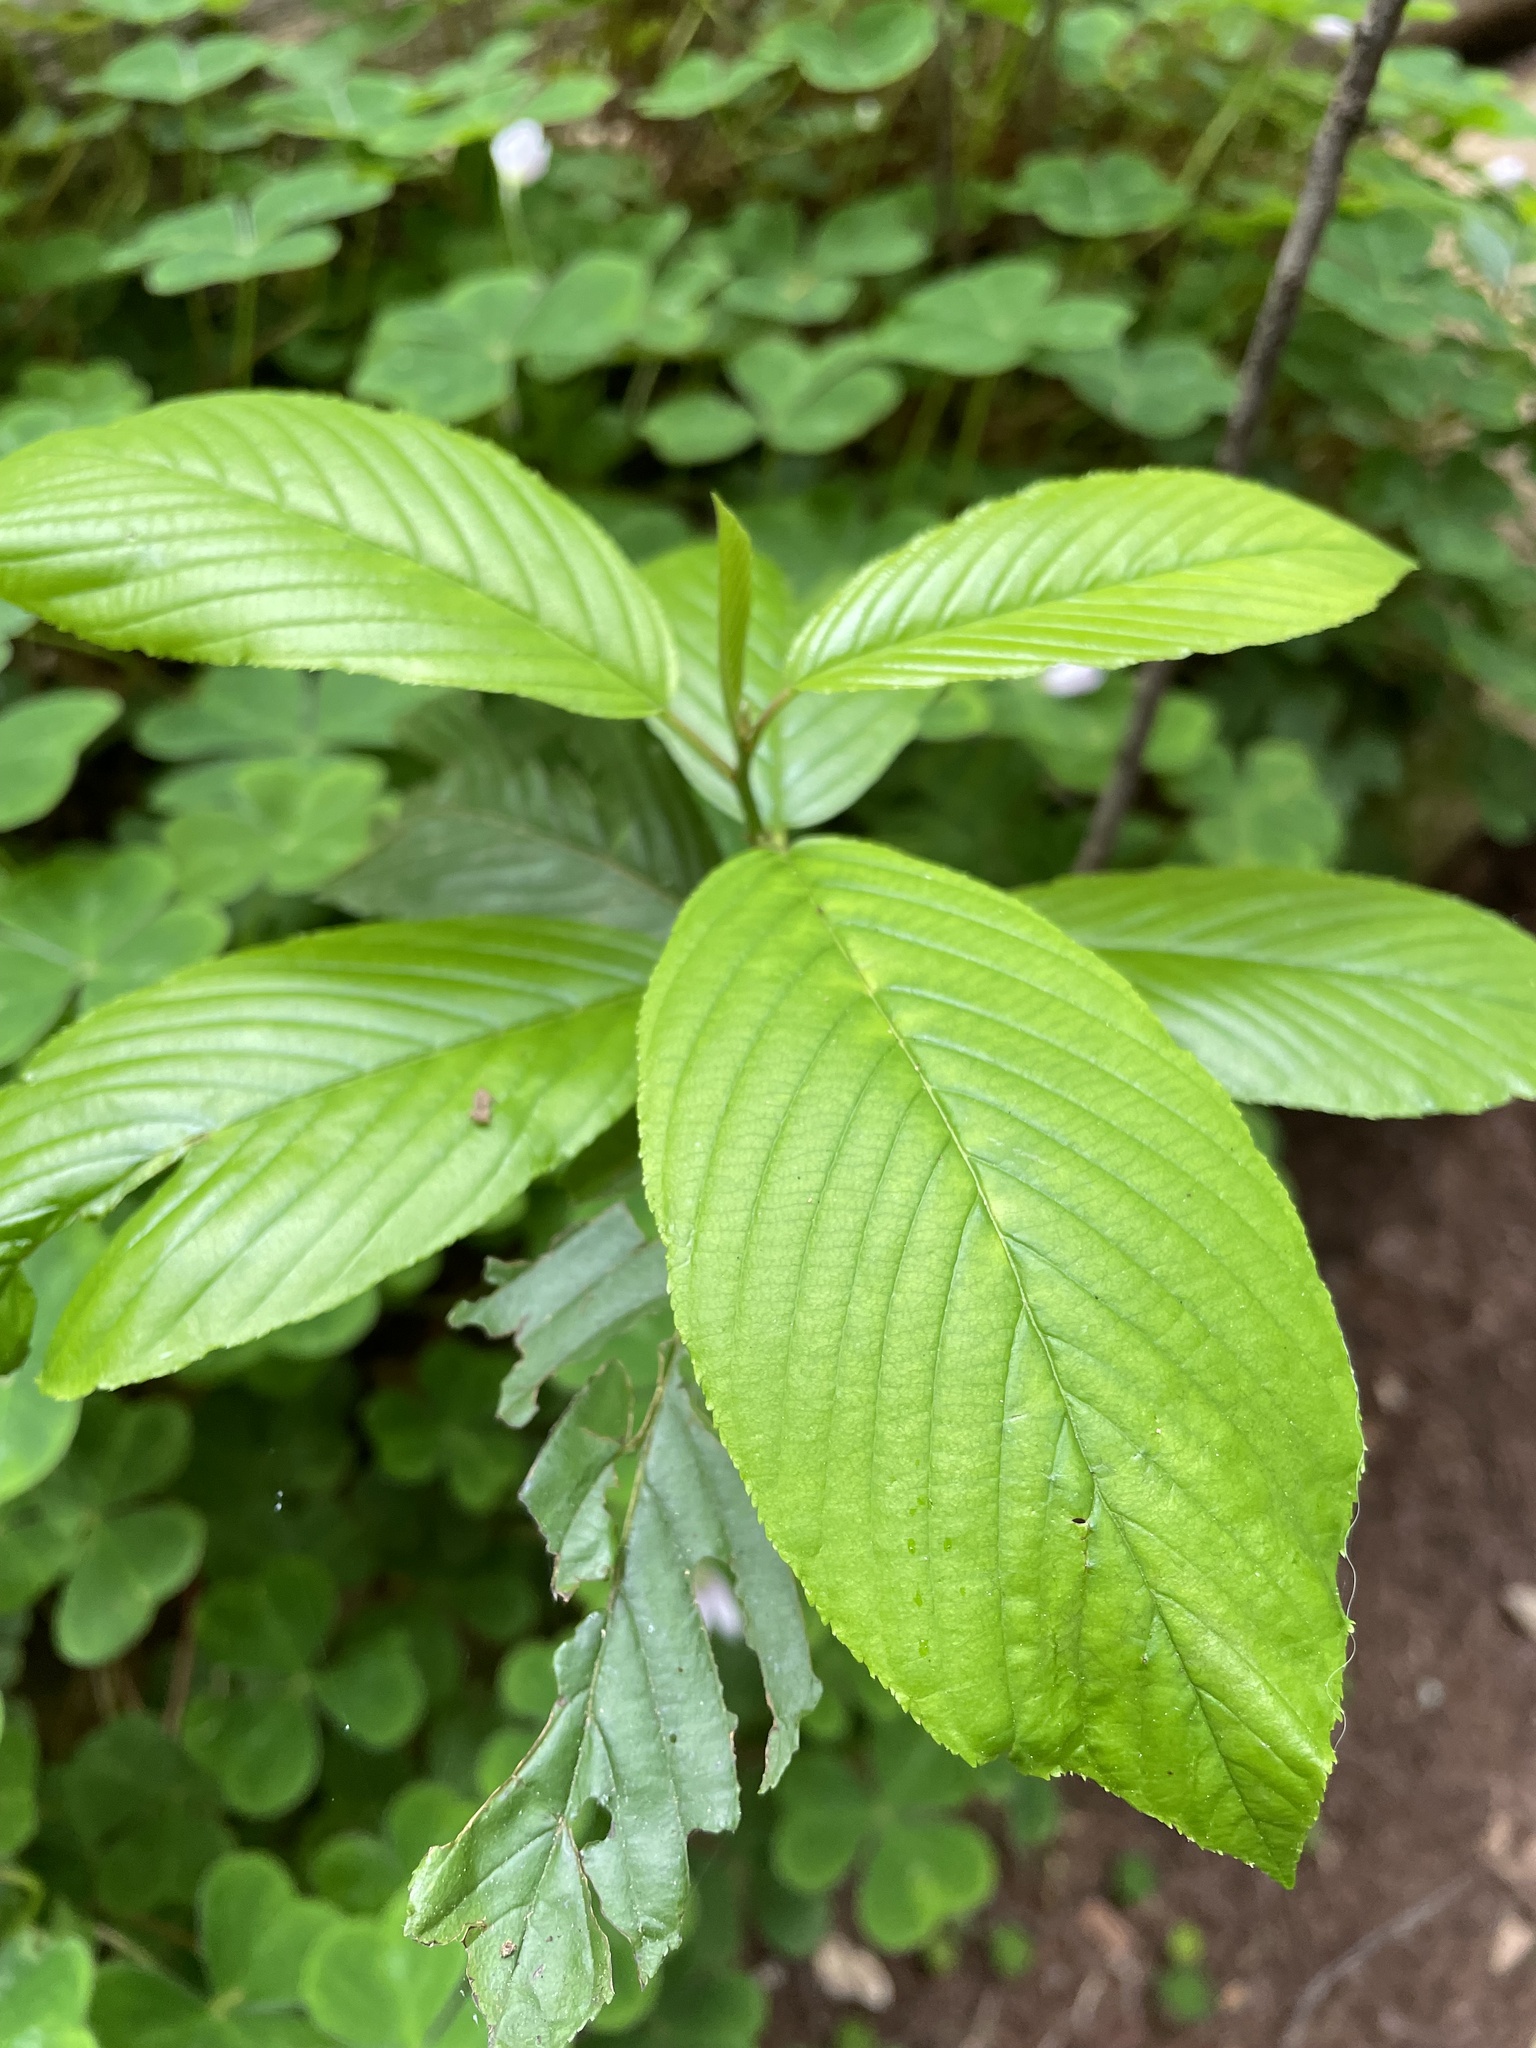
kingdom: Plantae
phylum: Tracheophyta
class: Magnoliopsida
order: Rosales
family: Rhamnaceae
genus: Frangula
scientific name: Frangula purshiana
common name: Cascara buckthorn
